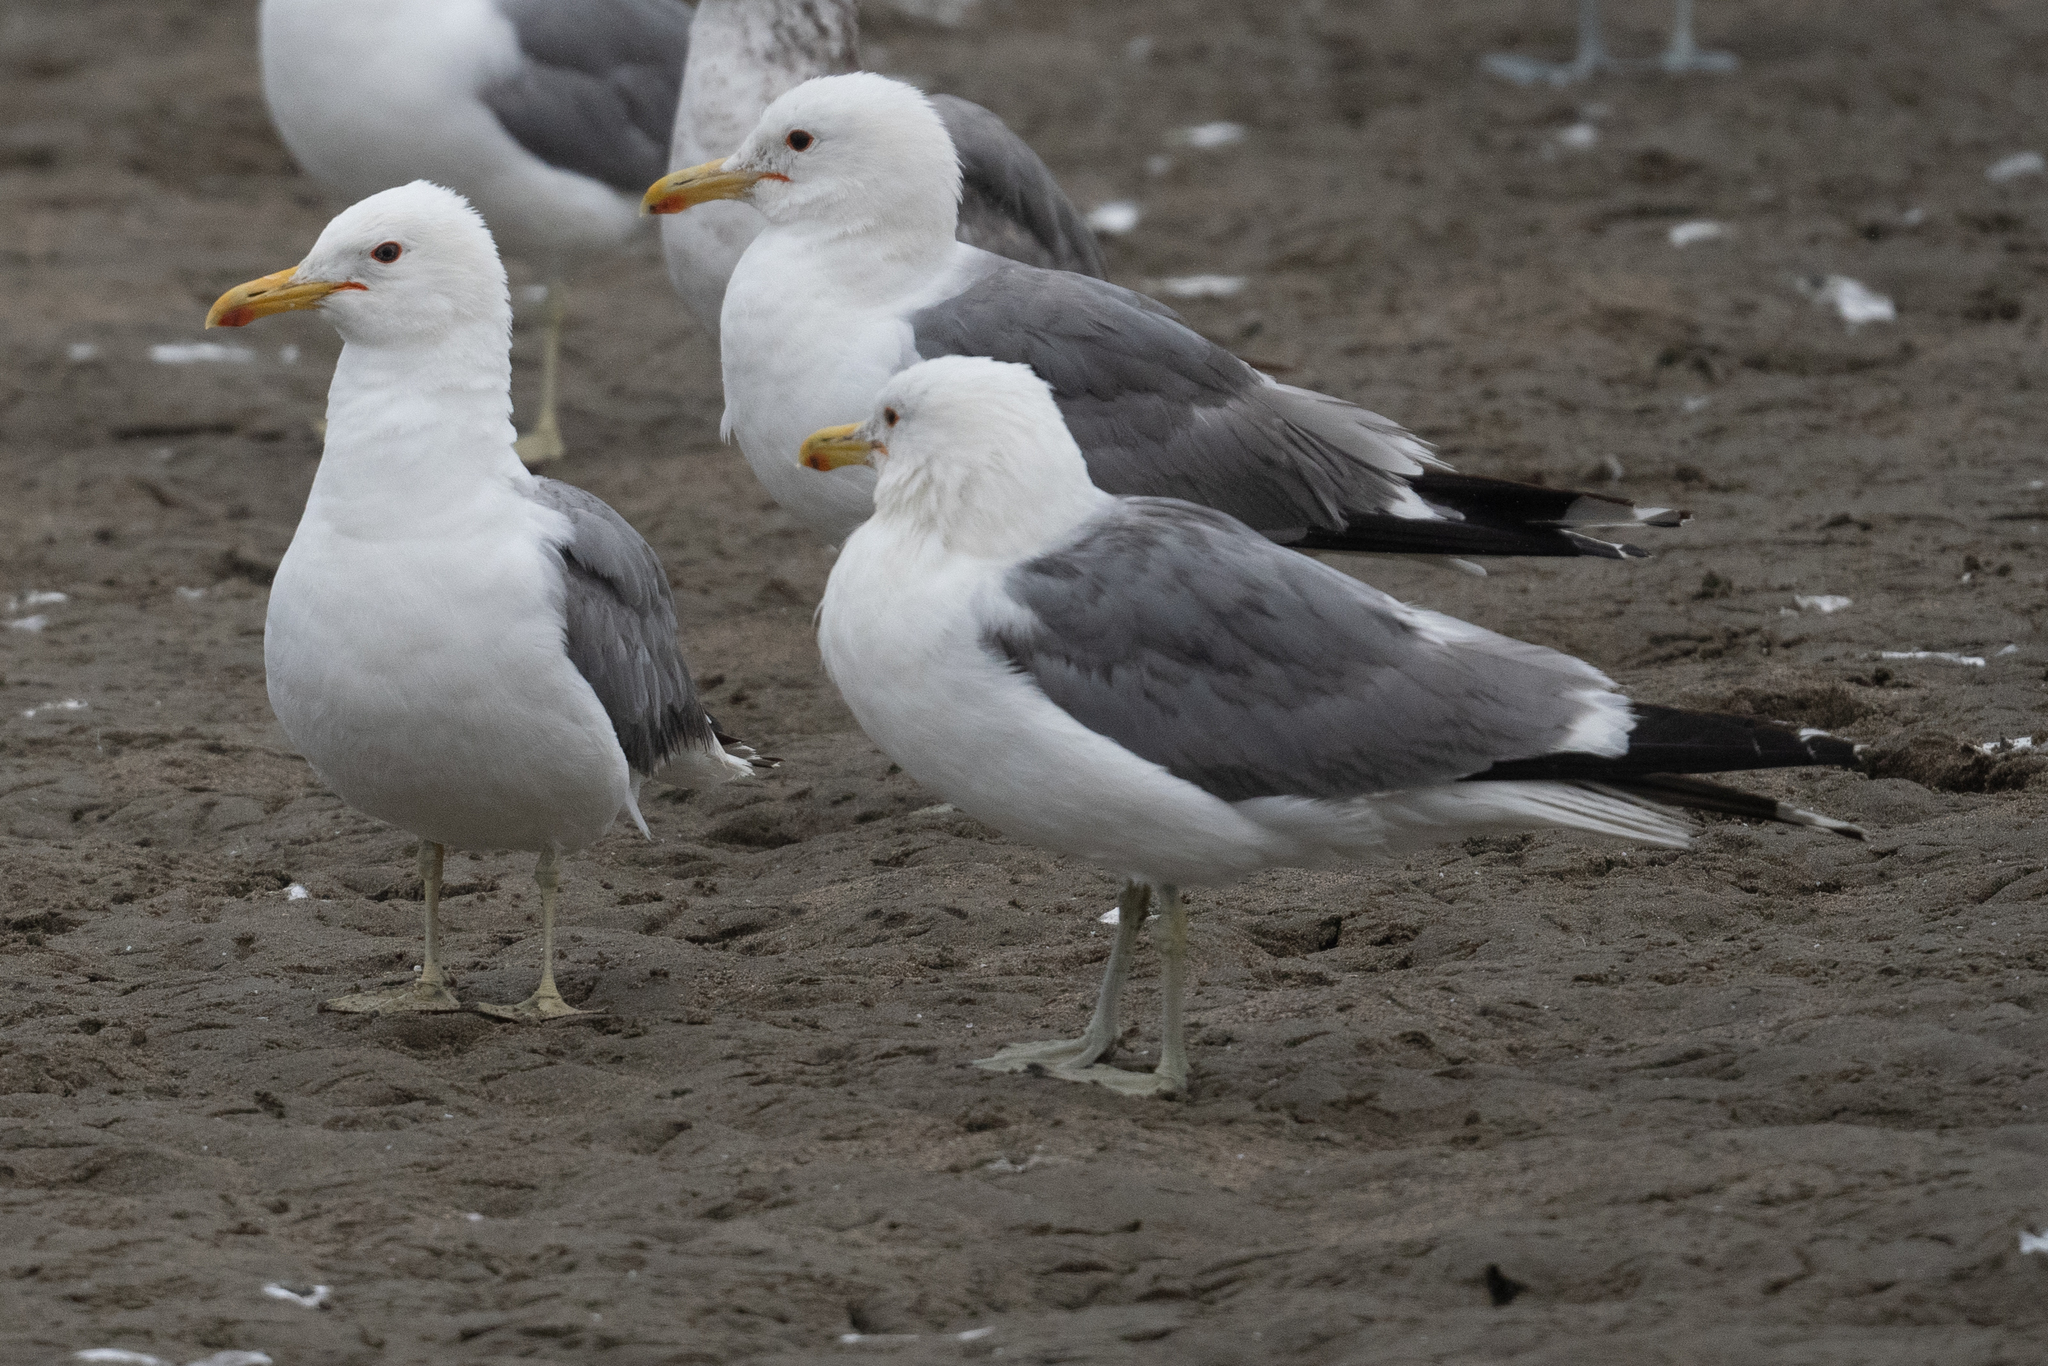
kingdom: Animalia
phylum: Chordata
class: Aves
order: Charadriiformes
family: Laridae
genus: Larus
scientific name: Larus californicus
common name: California gull
